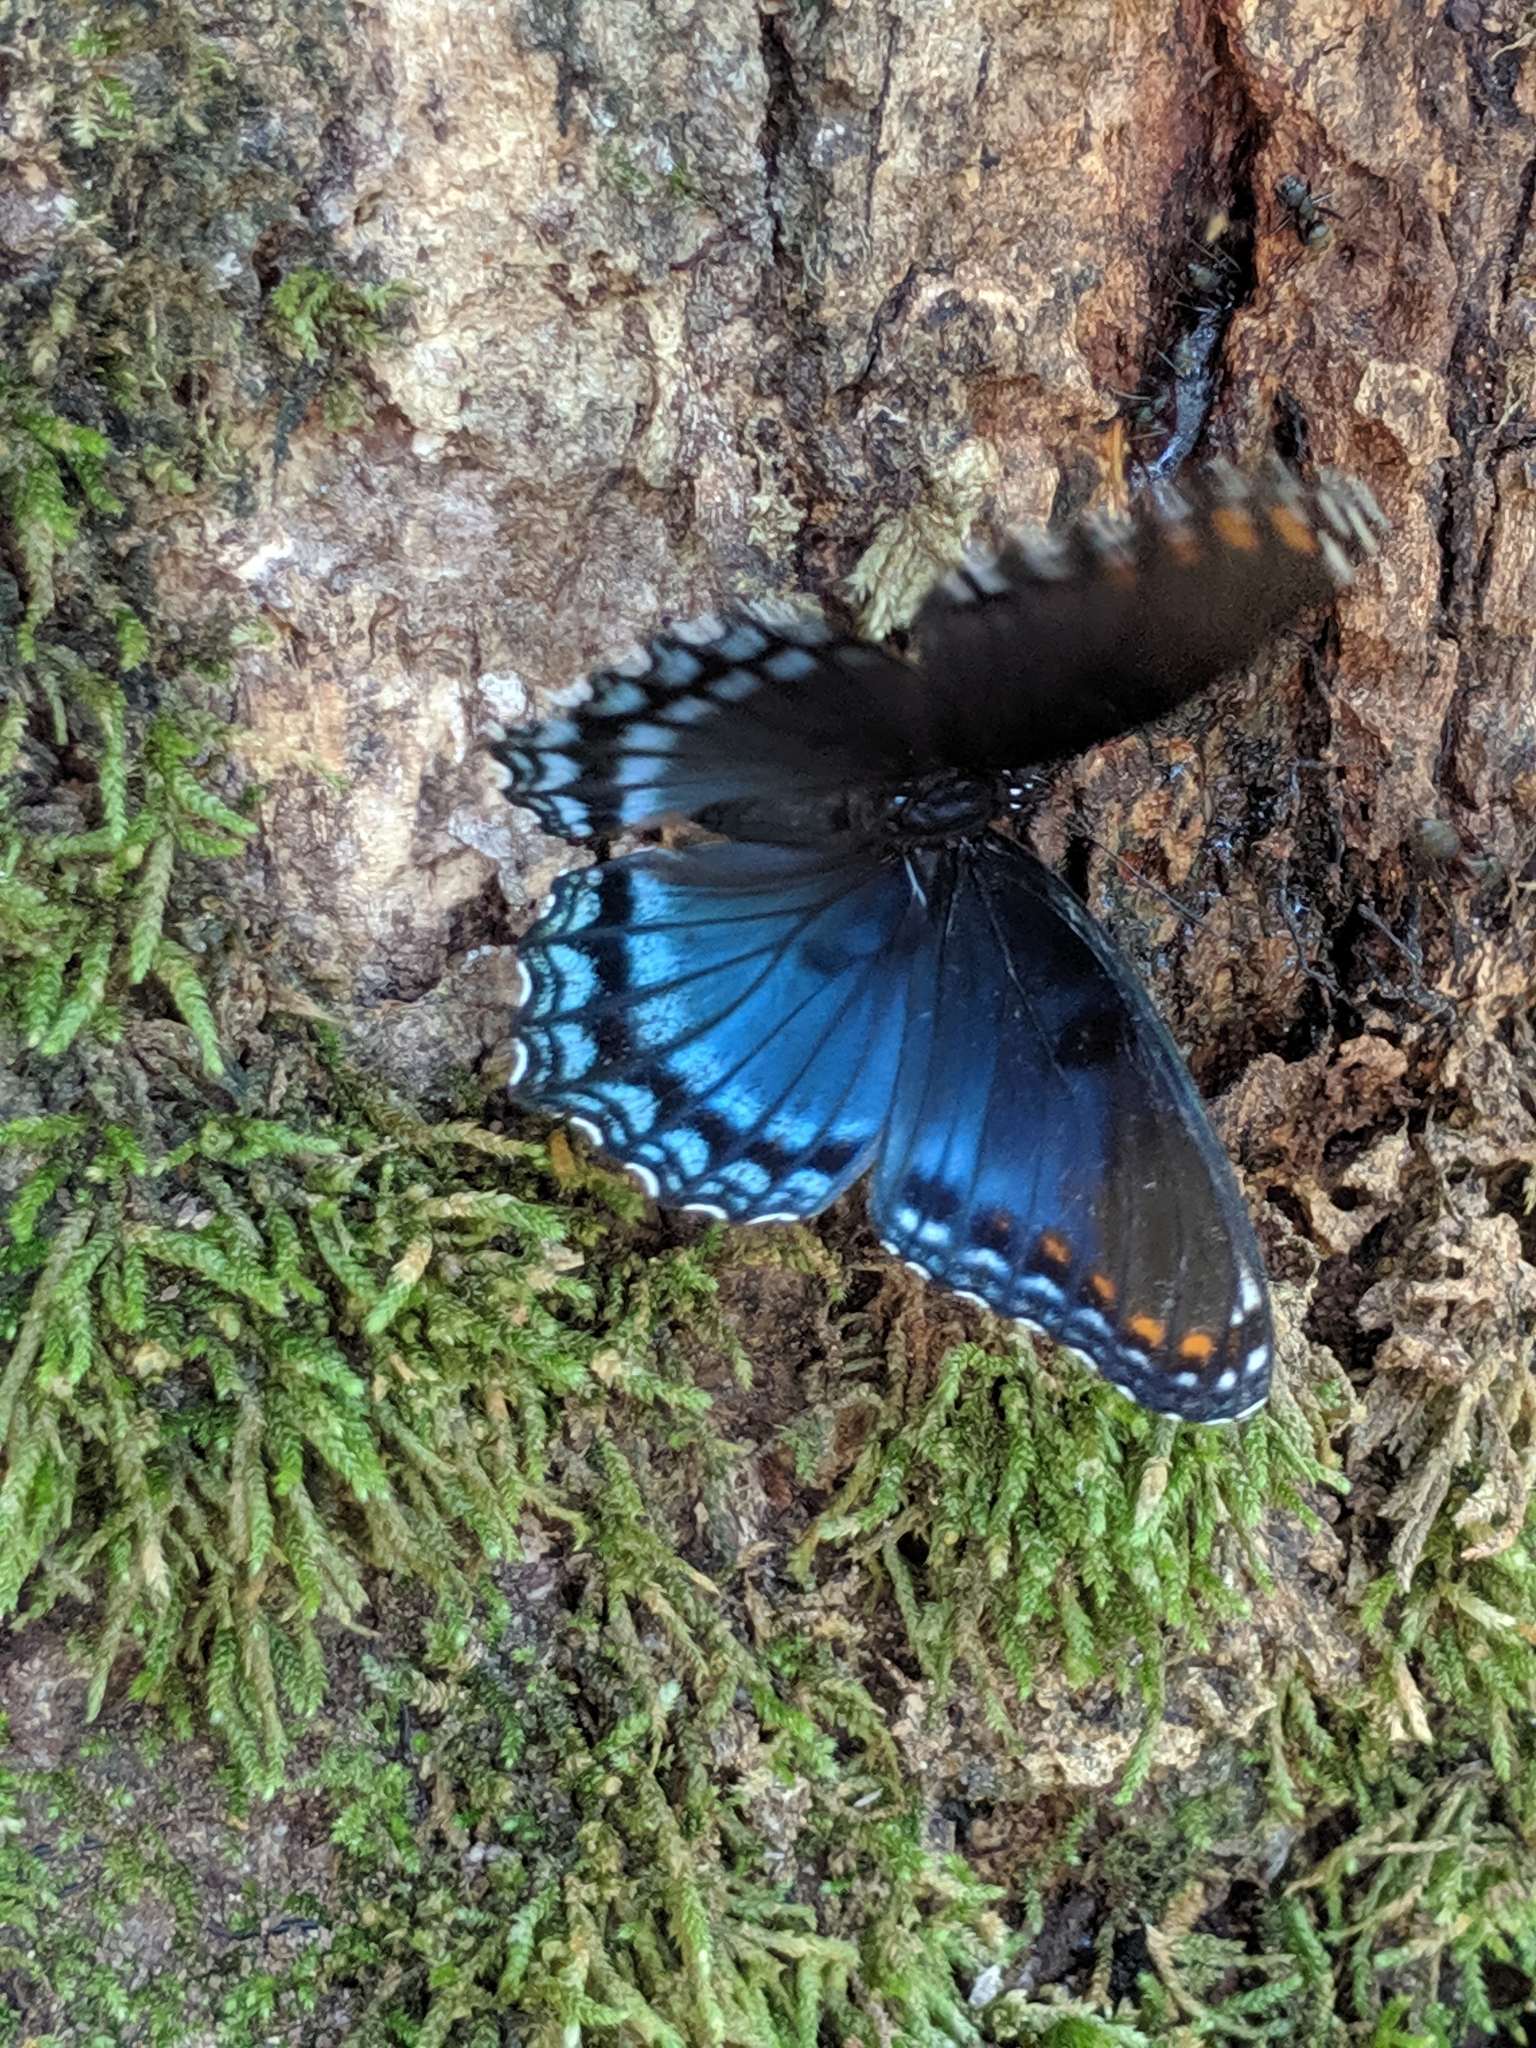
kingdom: Animalia
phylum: Arthropoda
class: Insecta
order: Lepidoptera
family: Nymphalidae
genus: Limenitis
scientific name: Limenitis arthemis
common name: Red-spotted admiral
